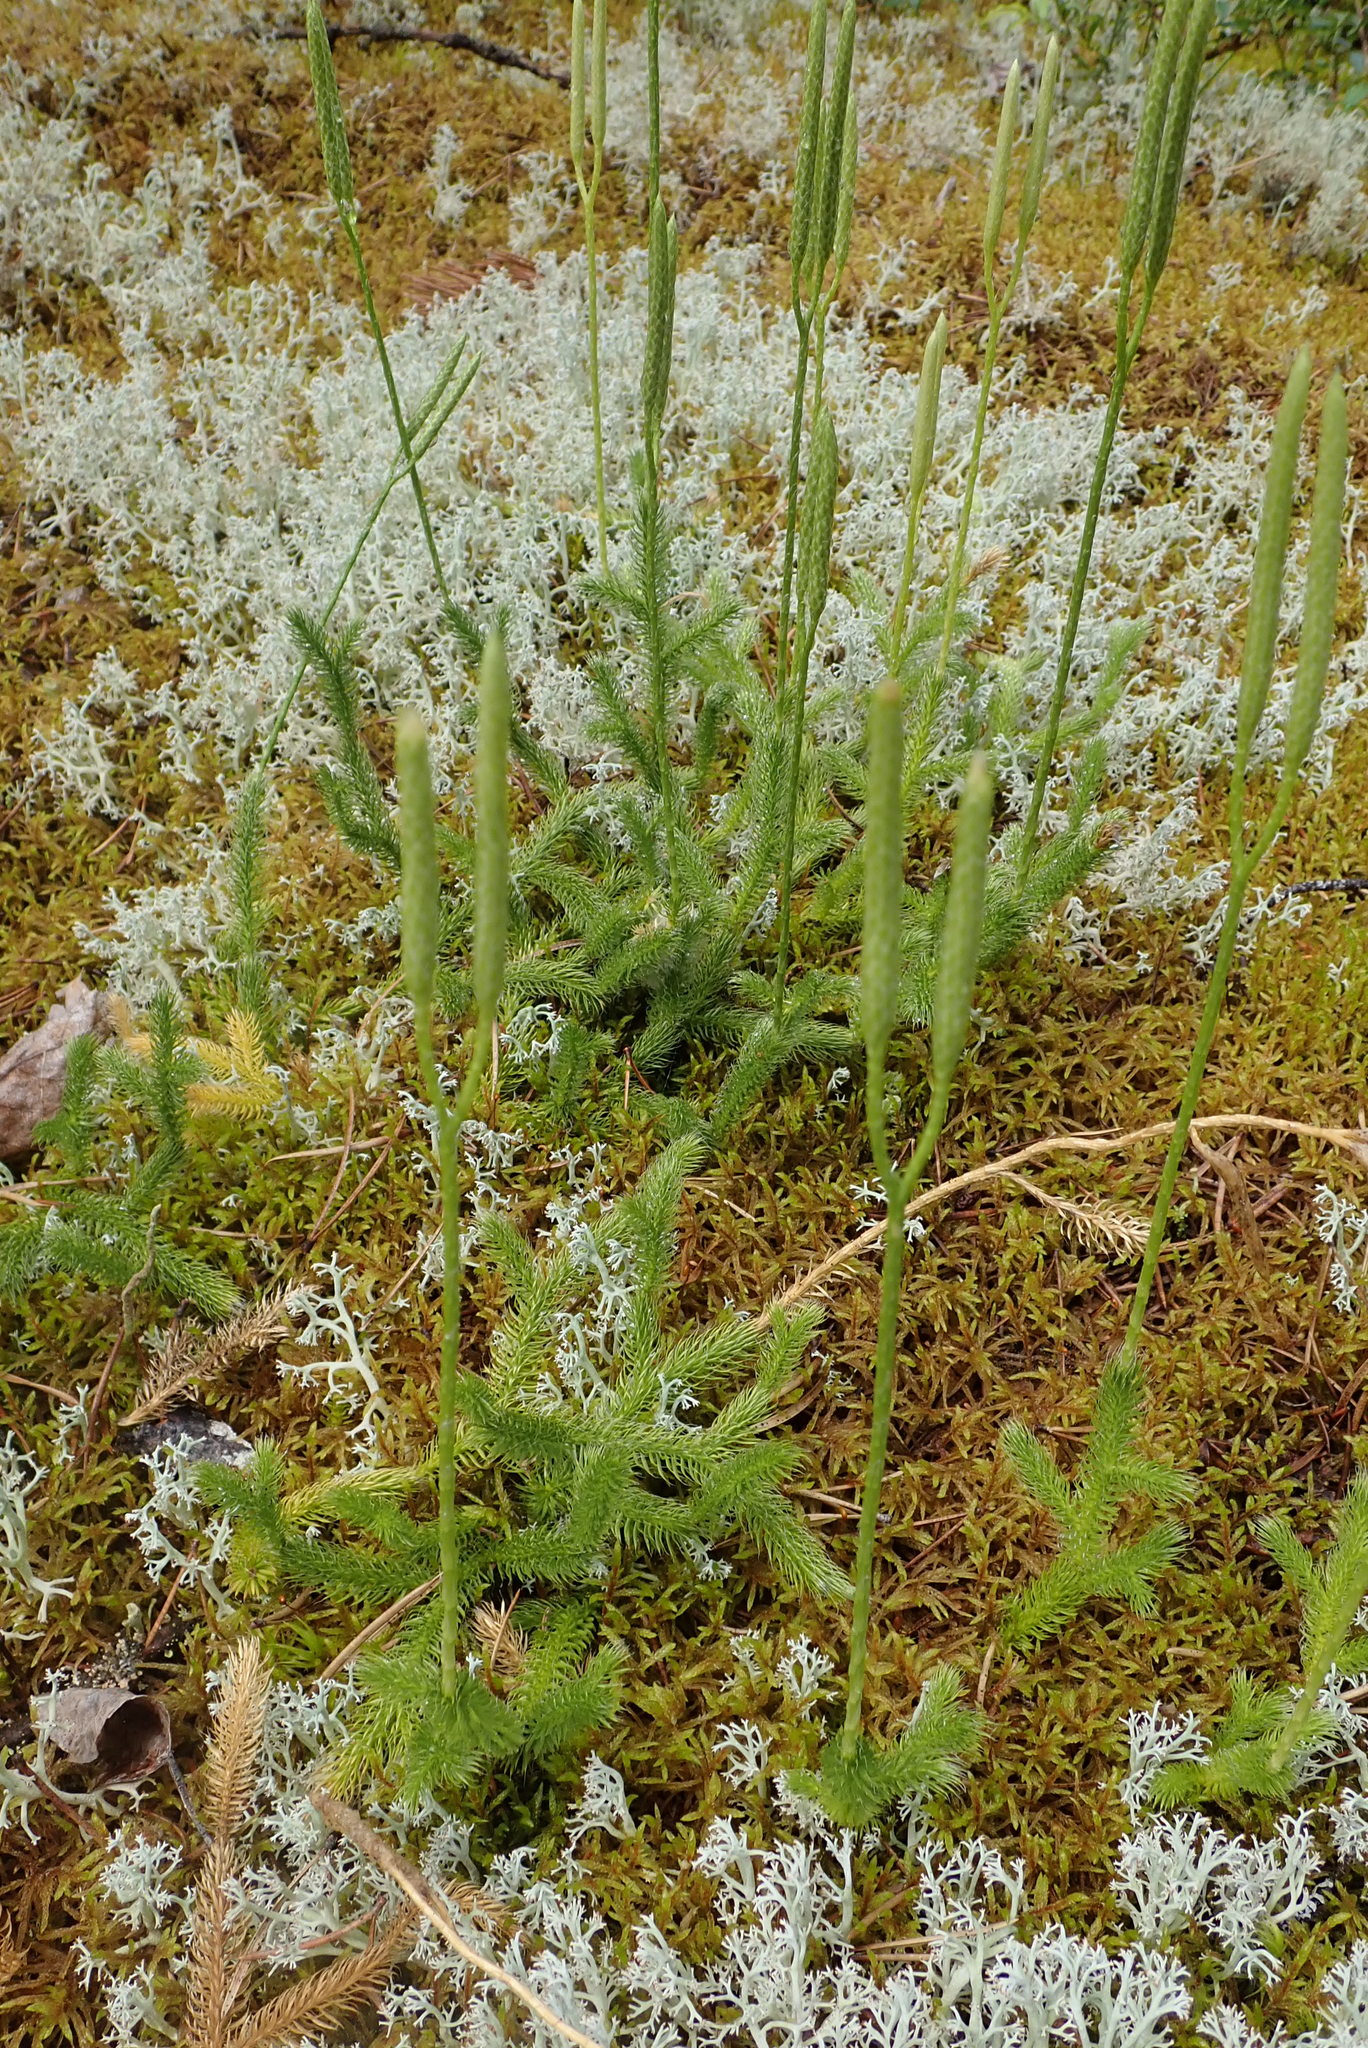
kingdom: Plantae
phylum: Tracheophyta
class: Lycopodiopsida
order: Lycopodiales
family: Lycopodiaceae
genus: Lycopodium
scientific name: Lycopodium clavatum
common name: Stag's-horn clubmoss
